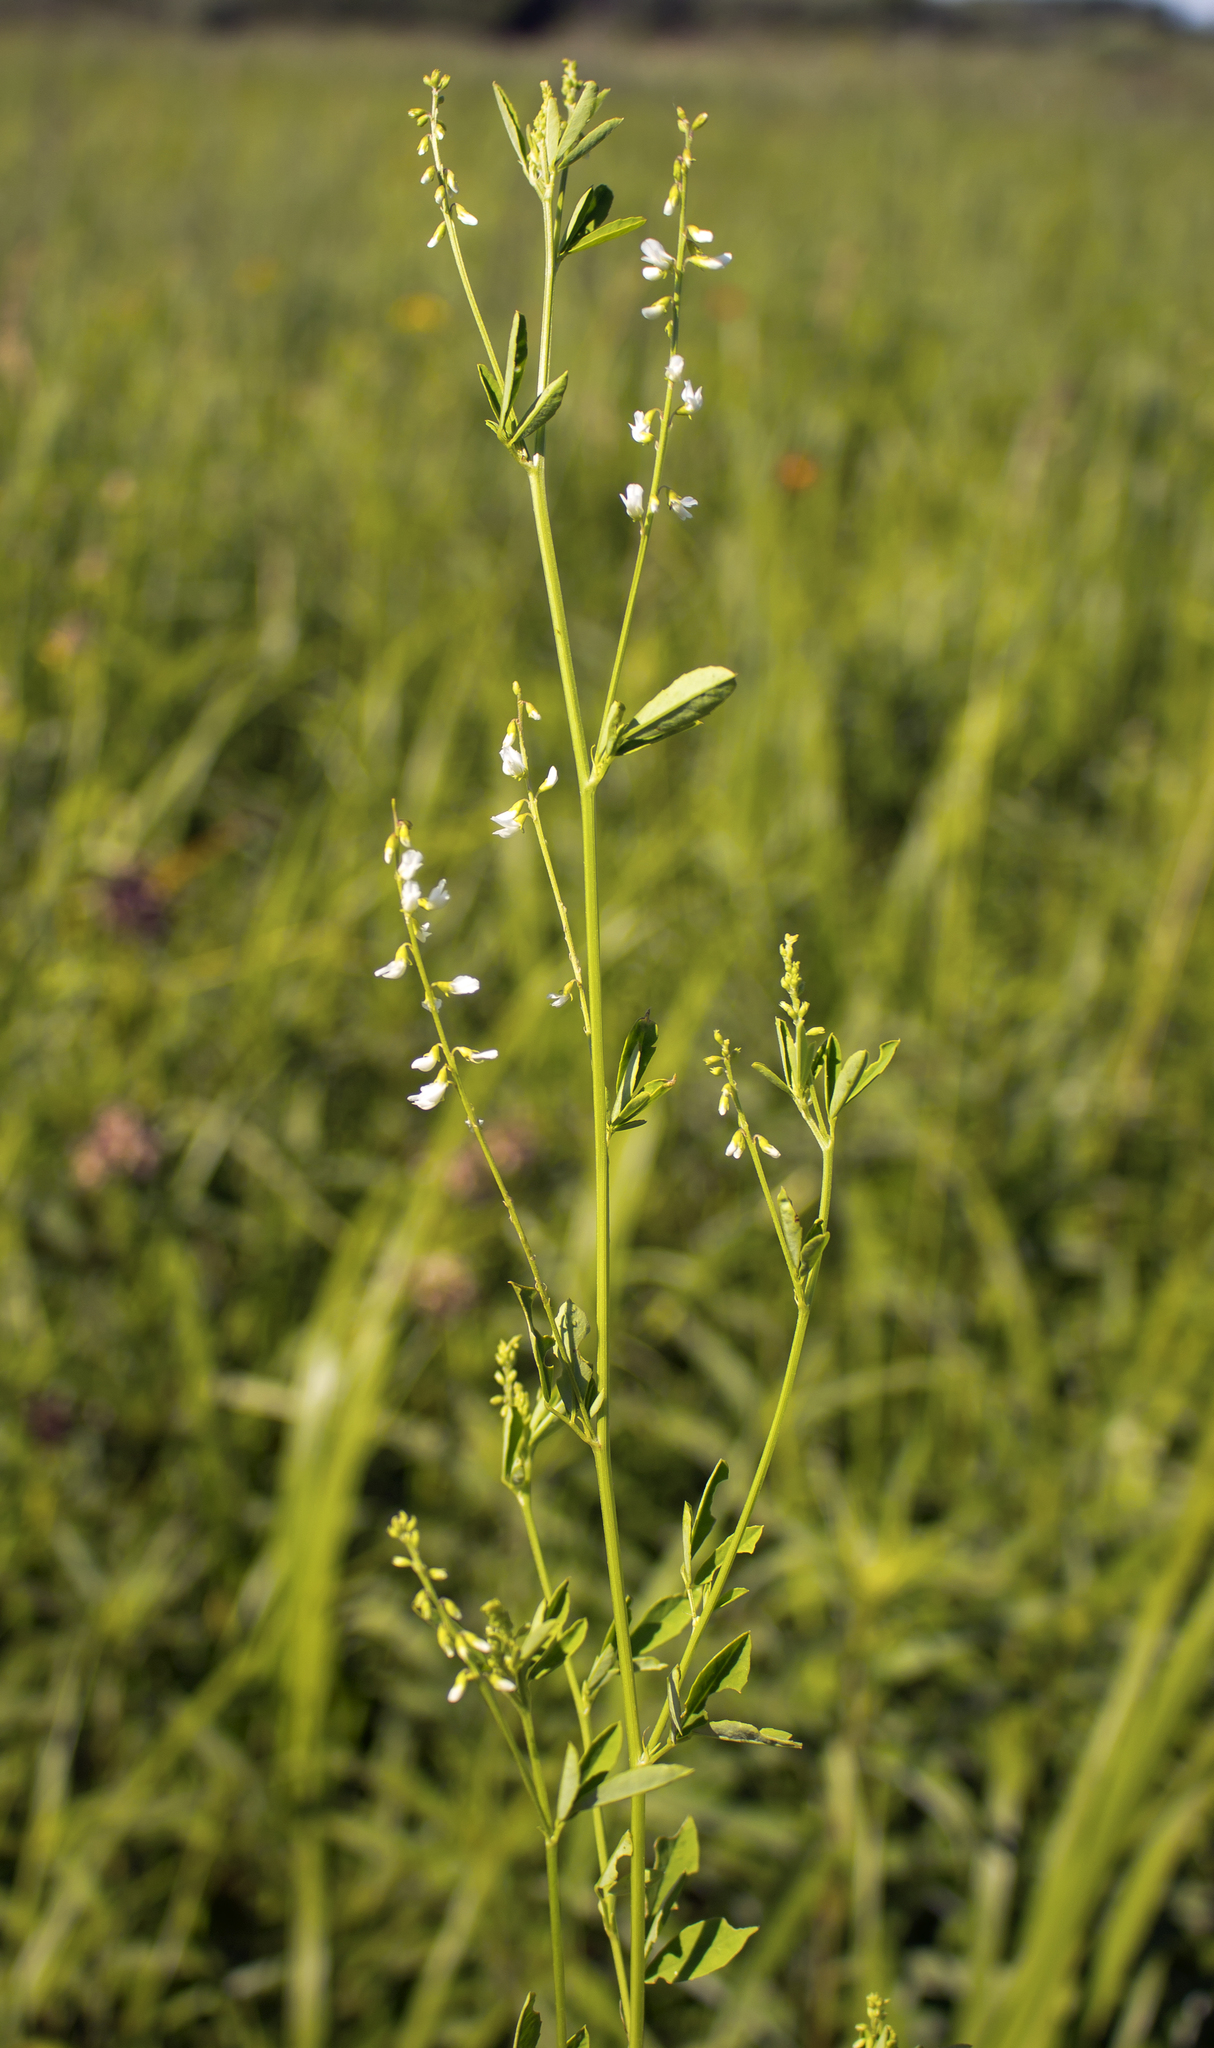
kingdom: Plantae
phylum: Tracheophyta
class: Magnoliopsida
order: Fabales
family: Fabaceae
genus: Melilotus
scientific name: Melilotus albus
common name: White melilot
